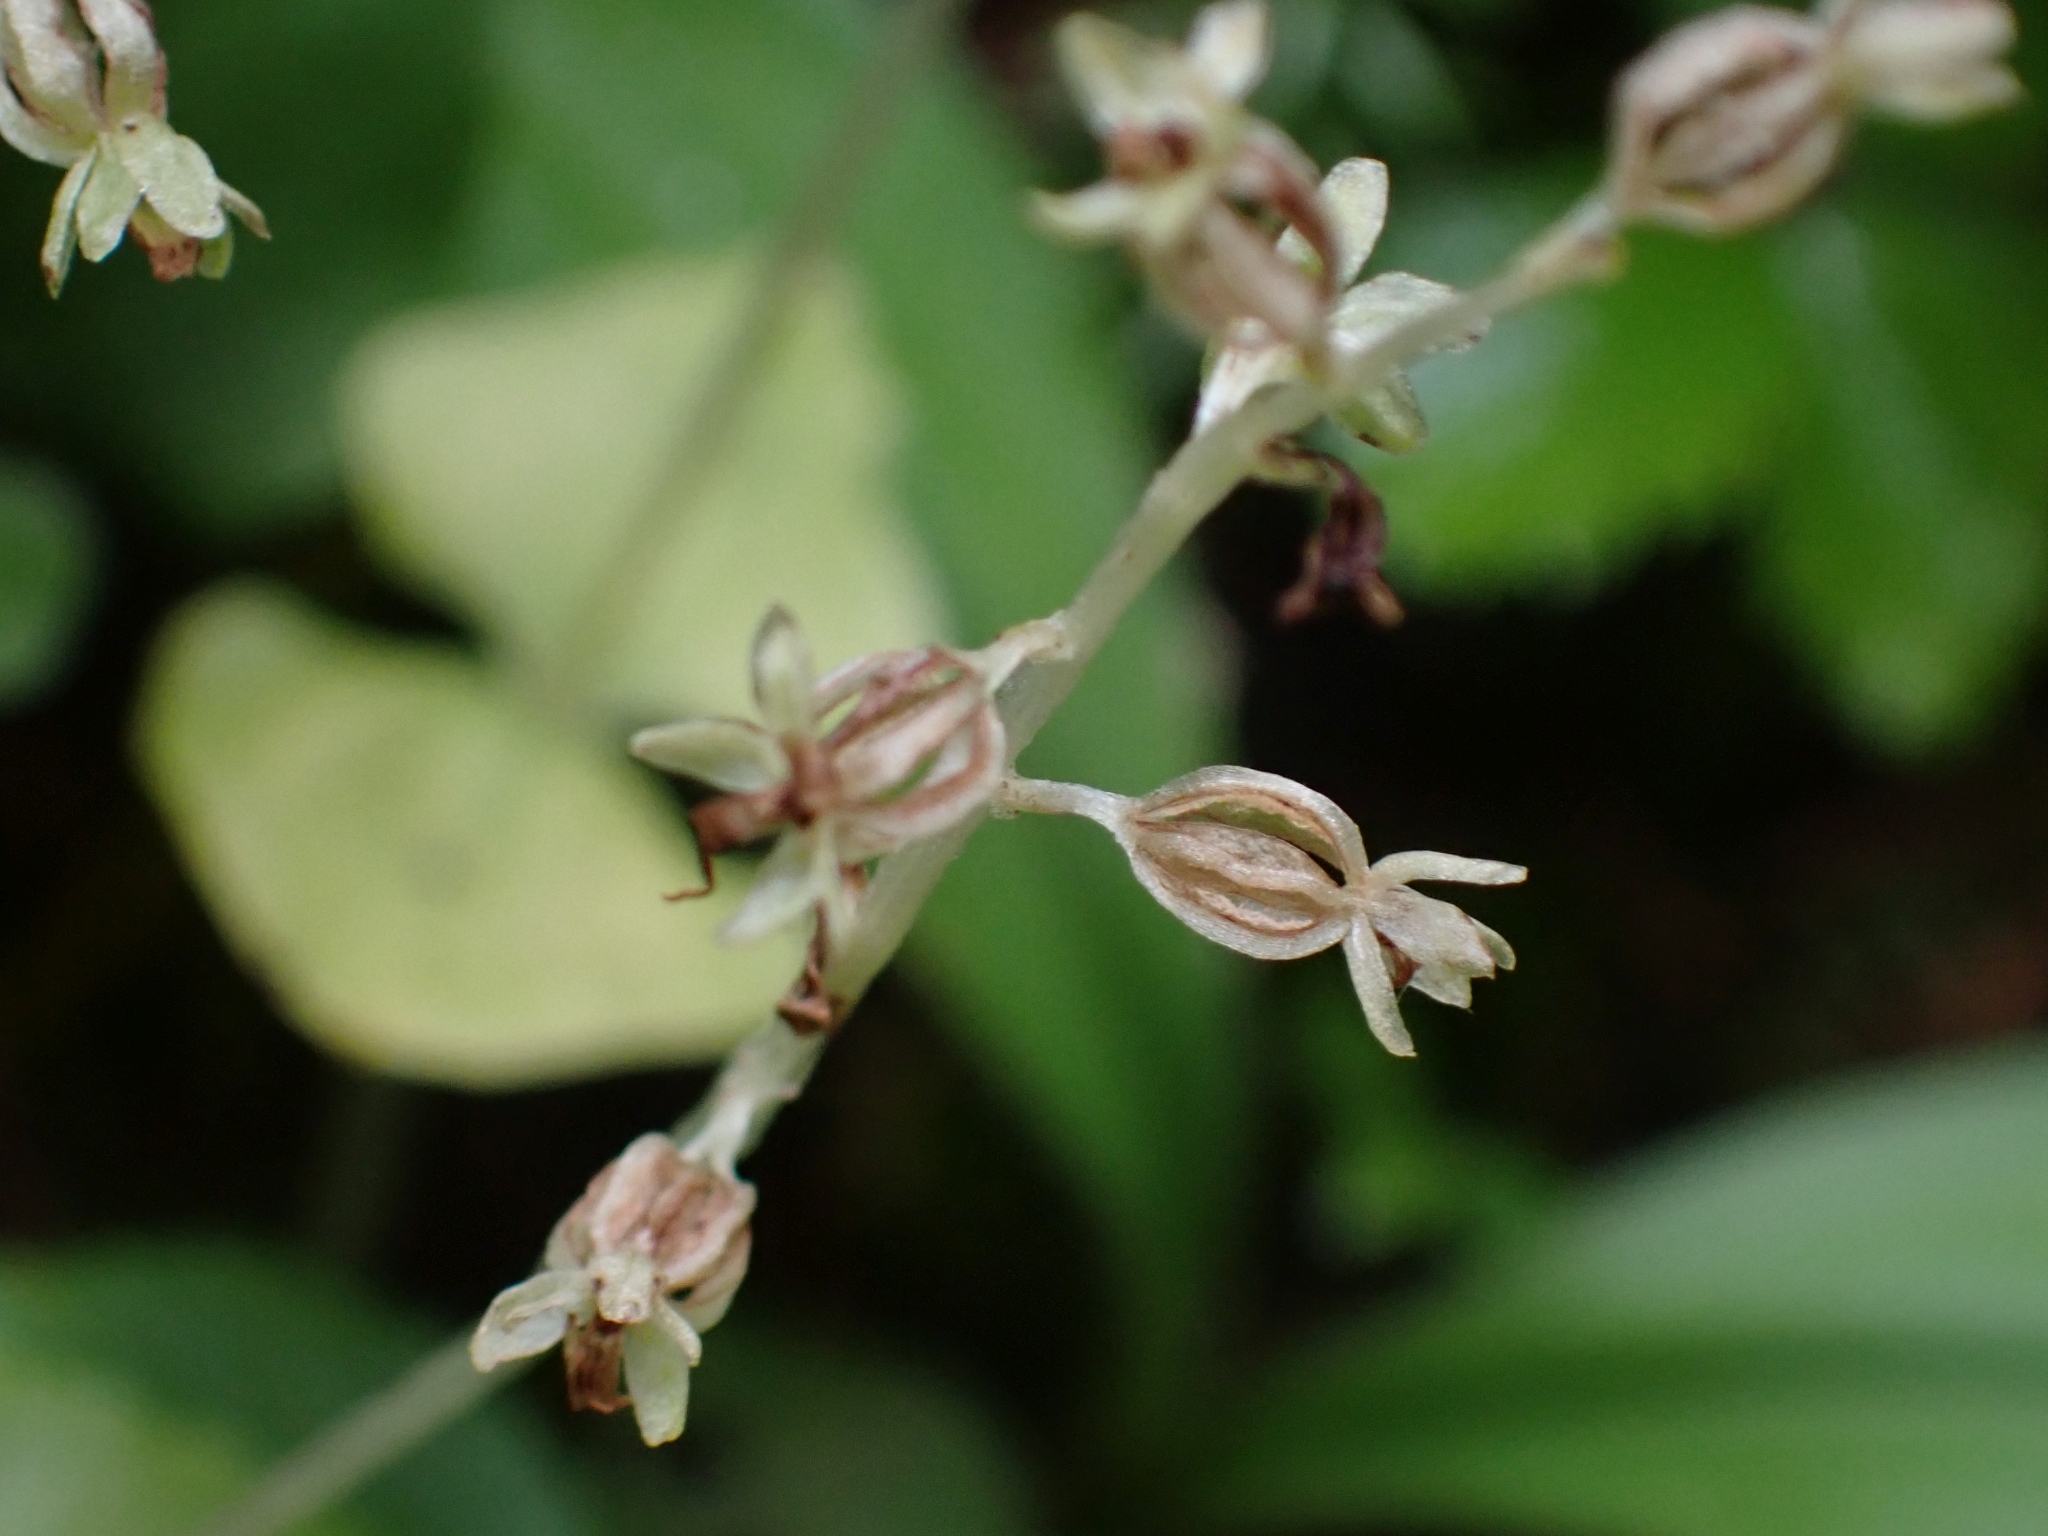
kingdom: Plantae
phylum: Tracheophyta
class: Liliopsida
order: Asparagales
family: Orchidaceae
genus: Neottia
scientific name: Neottia cordata
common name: Lesser twayblade
